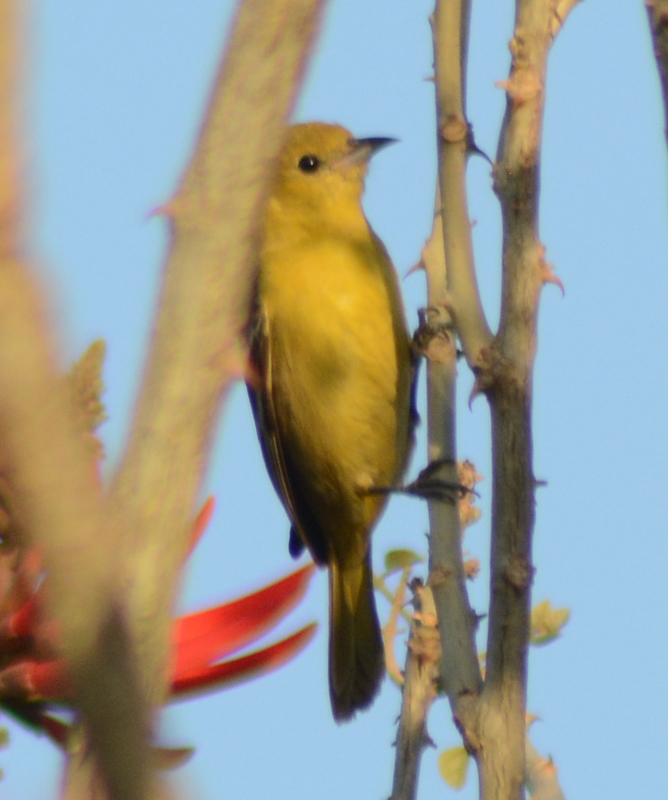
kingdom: Animalia
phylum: Chordata
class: Aves
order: Passeriformes
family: Icteridae
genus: Icterus
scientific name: Icterus spurius
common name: Orchard oriole
